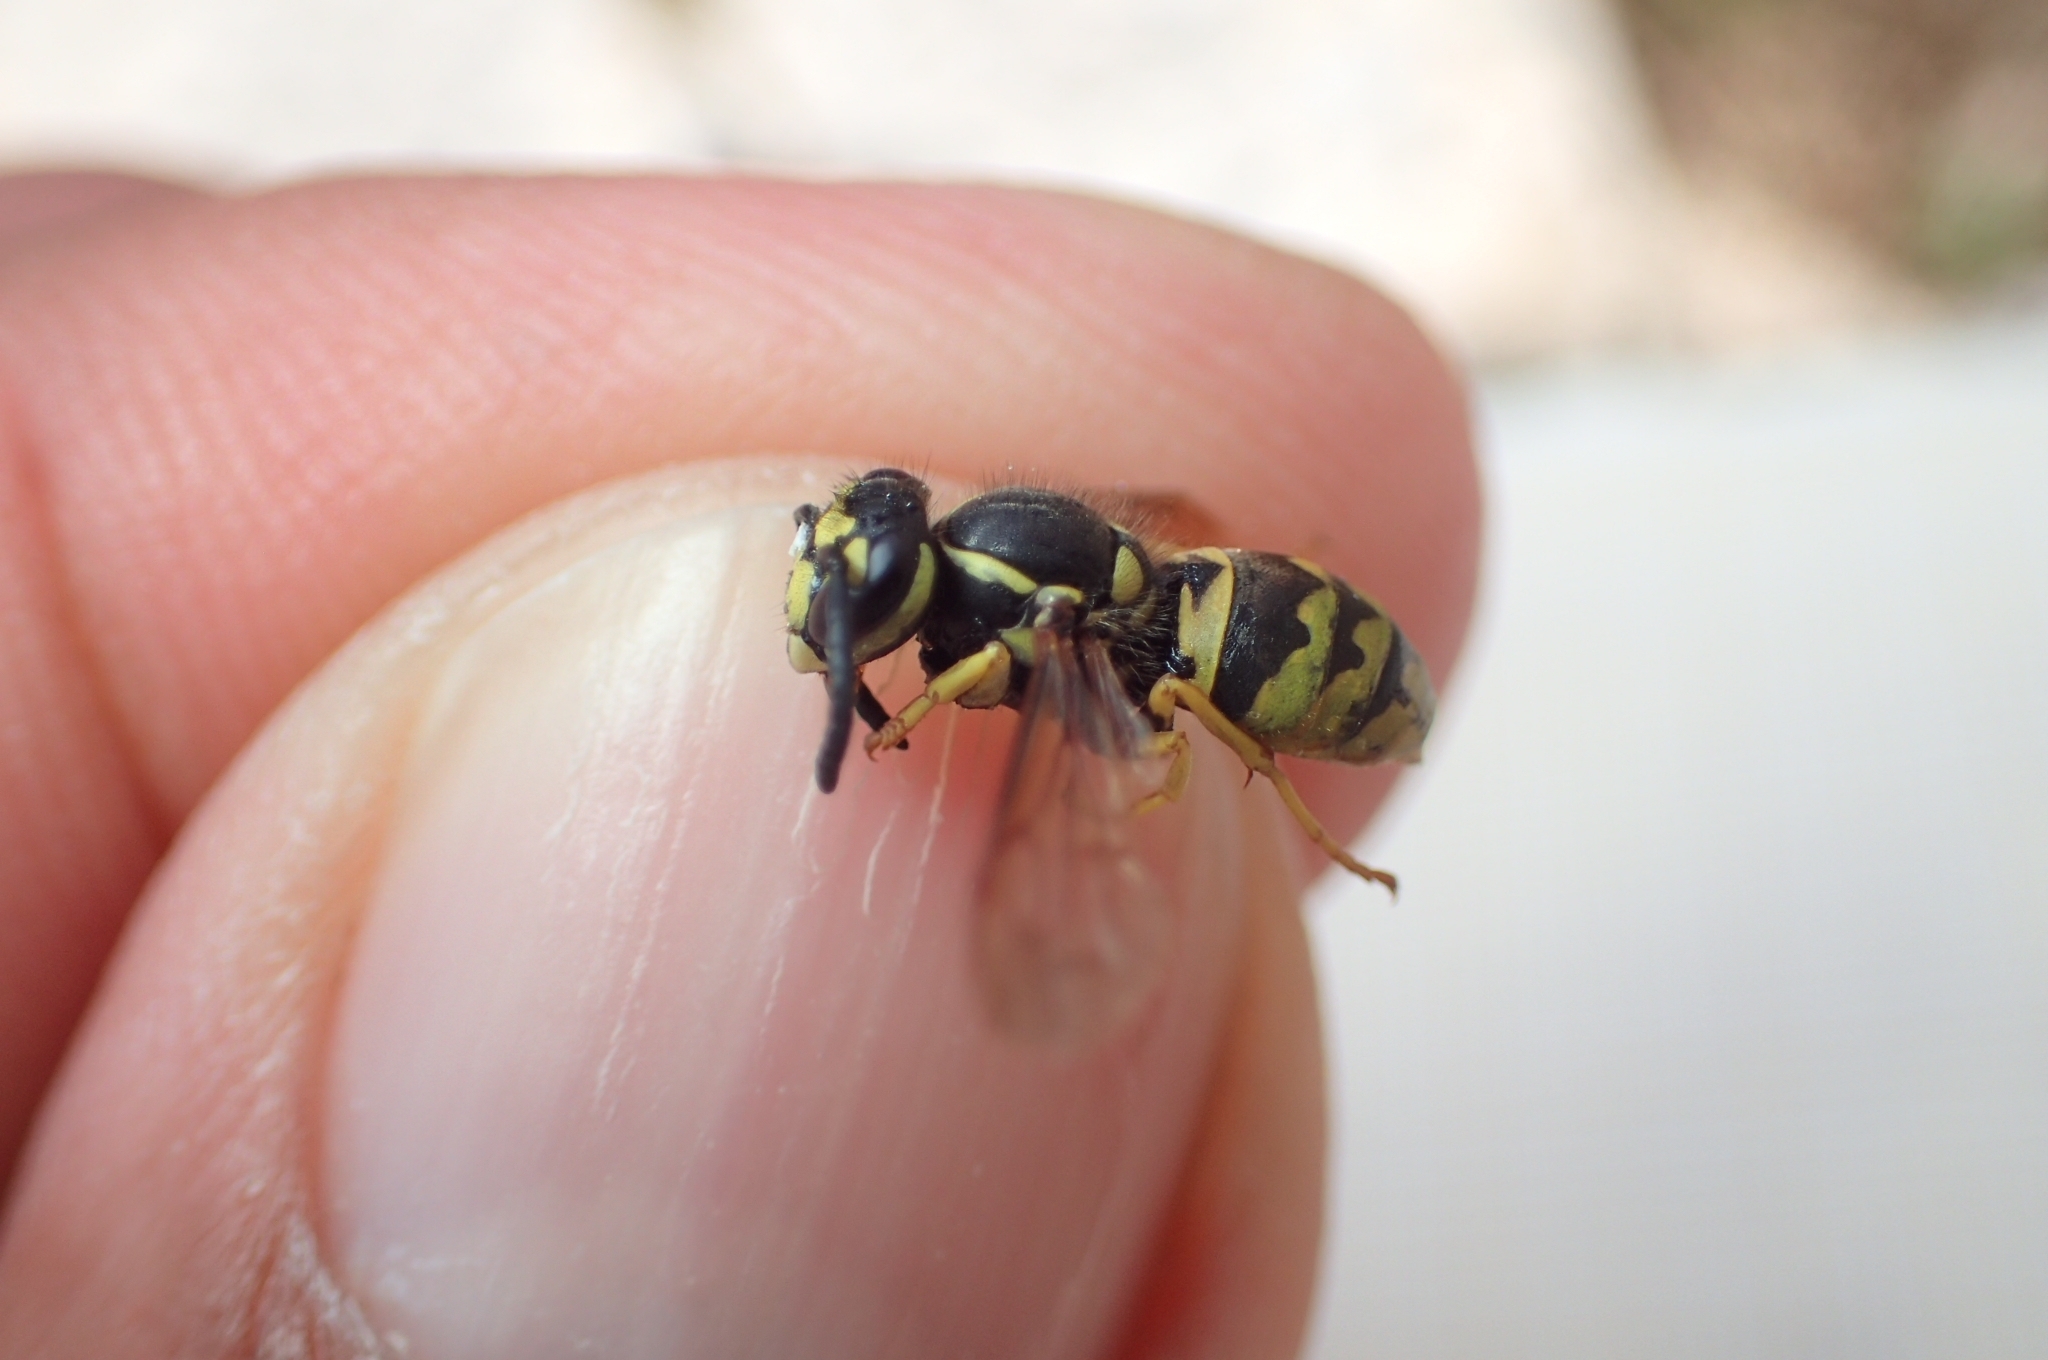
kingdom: Animalia
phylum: Arthropoda
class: Insecta
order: Hymenoptera
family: Vespidae
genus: Vespula
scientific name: Vespula germanica
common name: German wasp
